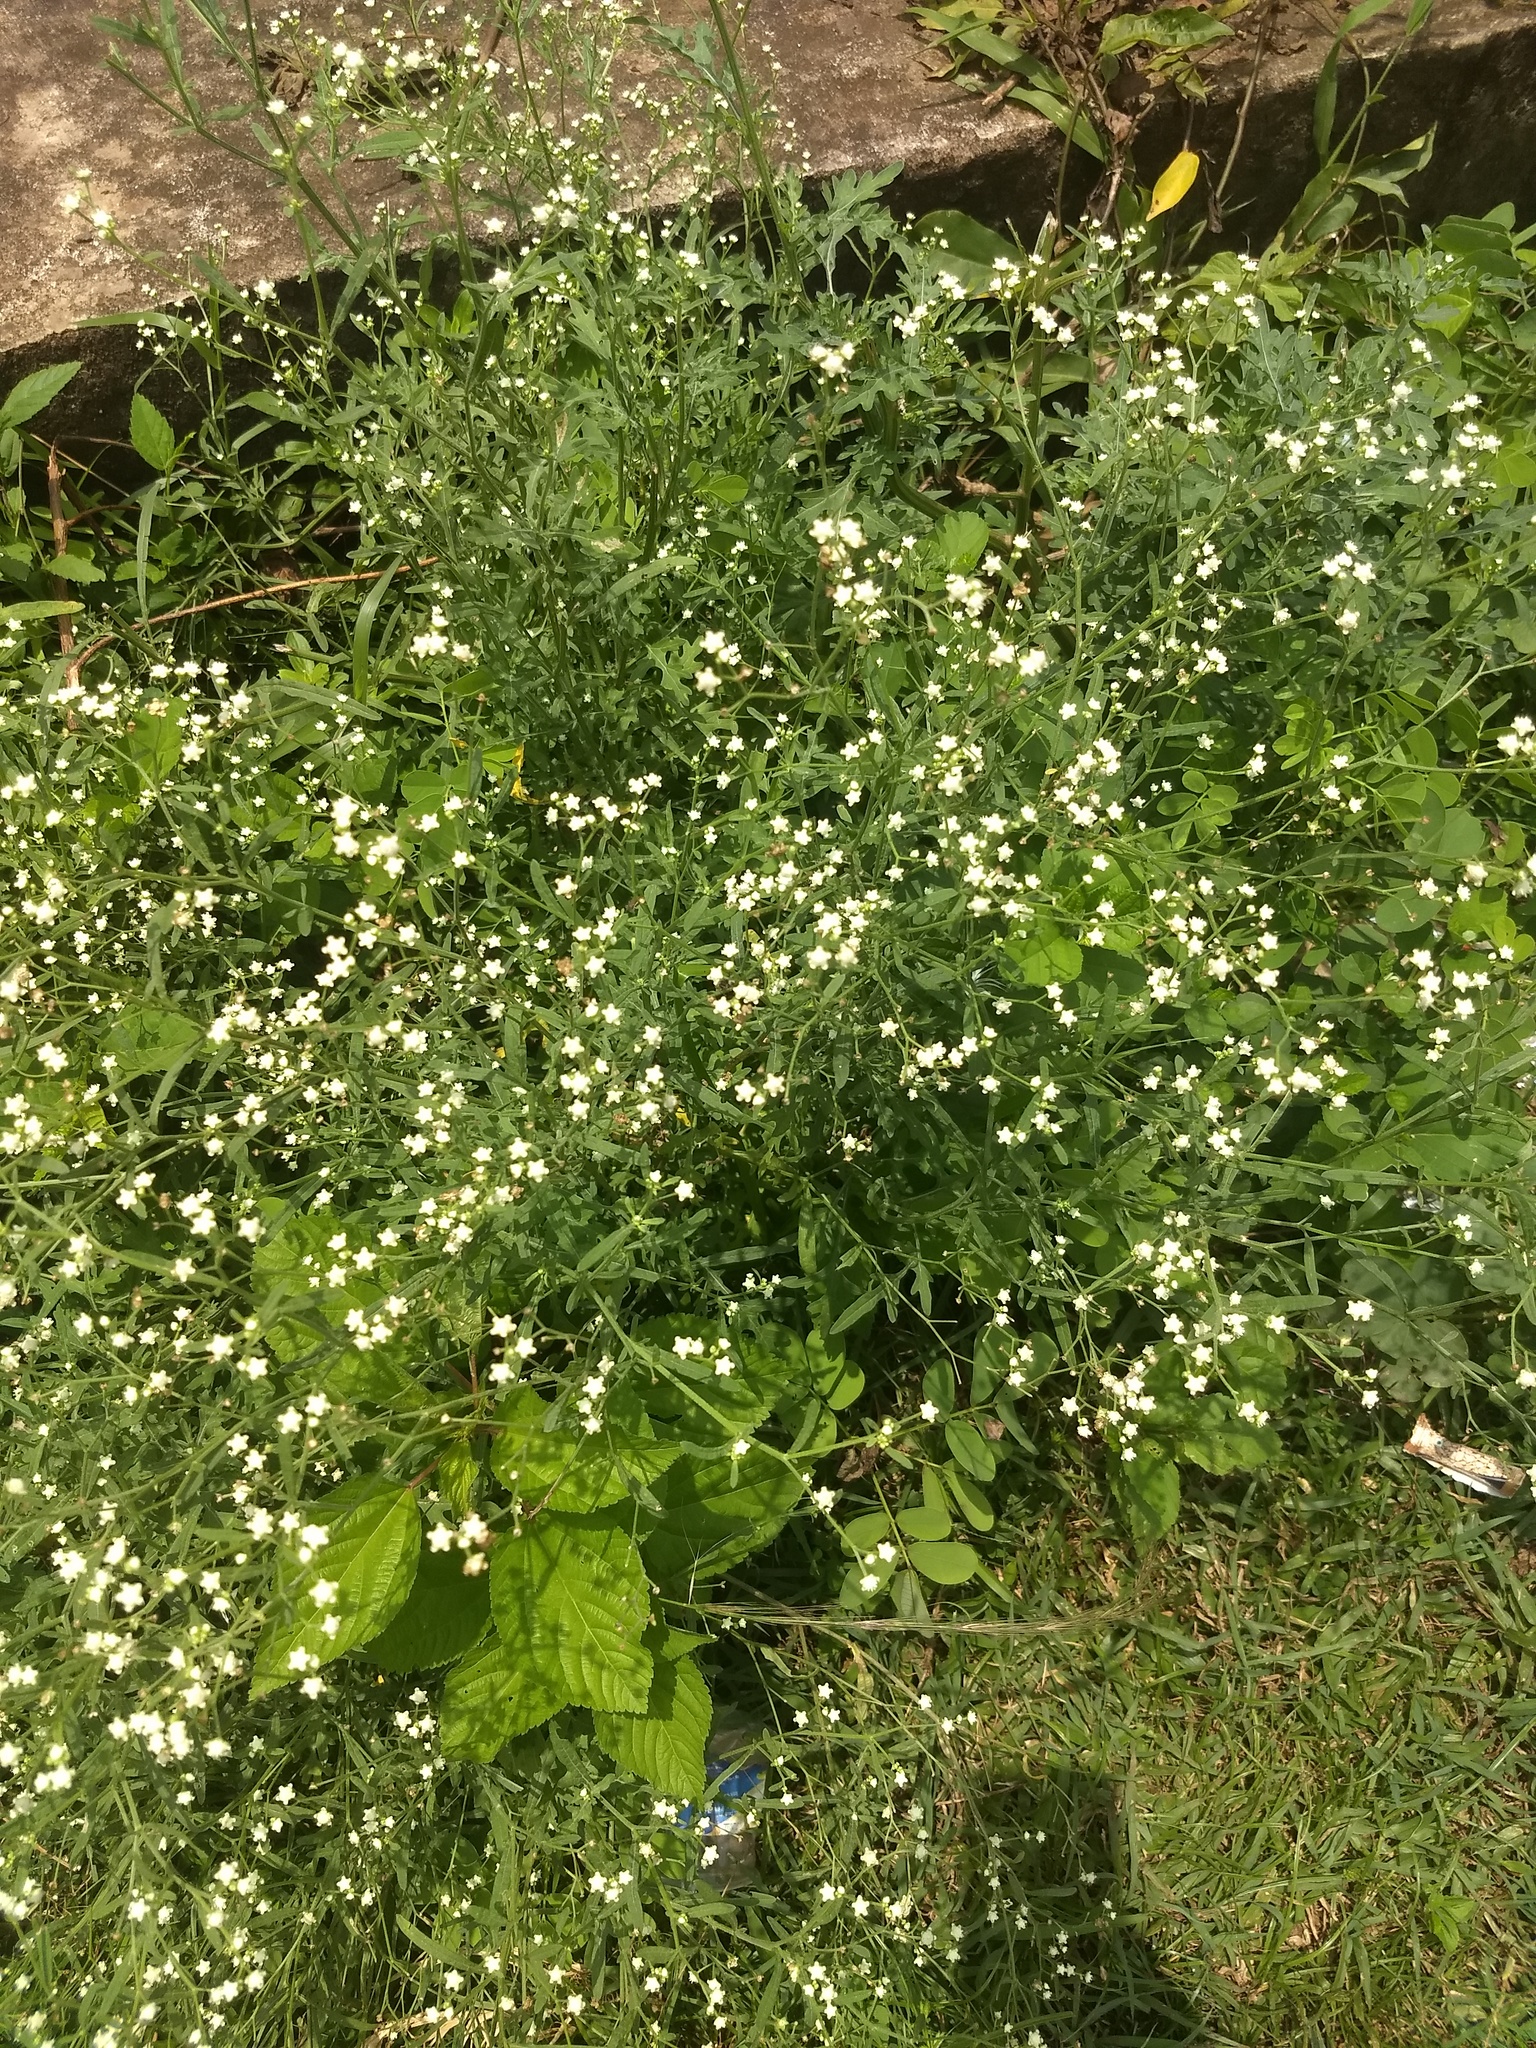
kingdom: Plantae
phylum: Tracheophyta
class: Magnoliopsida
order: Asterales
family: Asteraceae
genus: Parthenium
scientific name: Parthenium hysterophorus
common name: Santa maria feverfew
